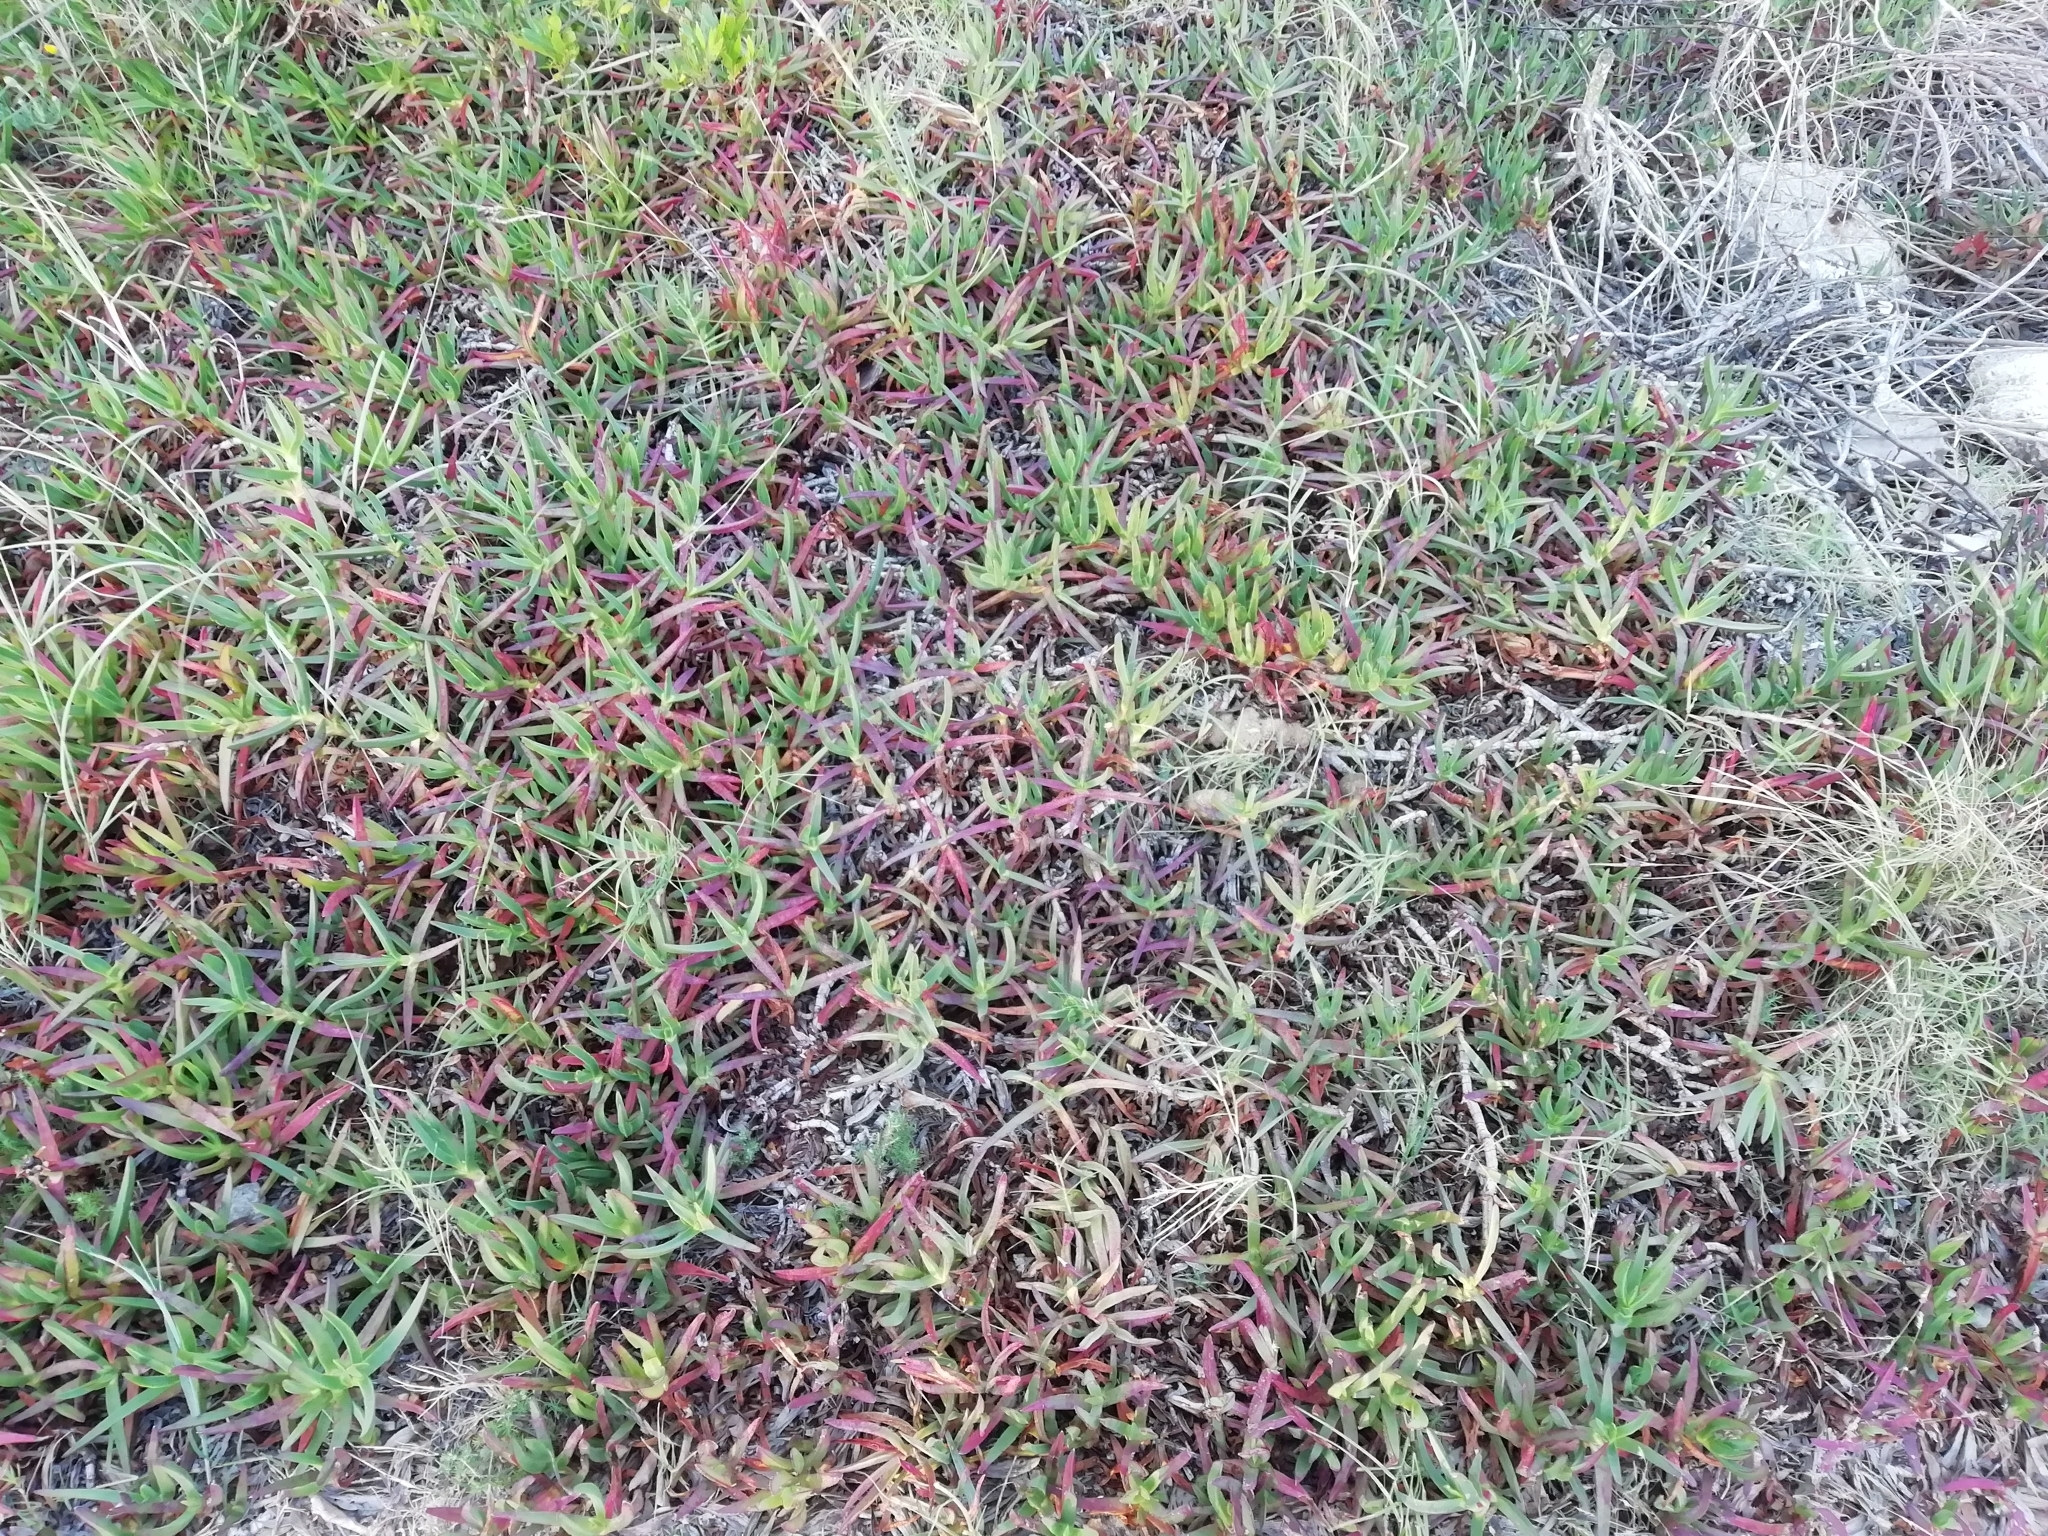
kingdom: Plantae
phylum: Tracheophyta
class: Magnoliopsida
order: Caryophyllales
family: Aizoaceae
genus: Carpobrotus
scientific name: Carpobrotus edulis
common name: Hottentot-fig
